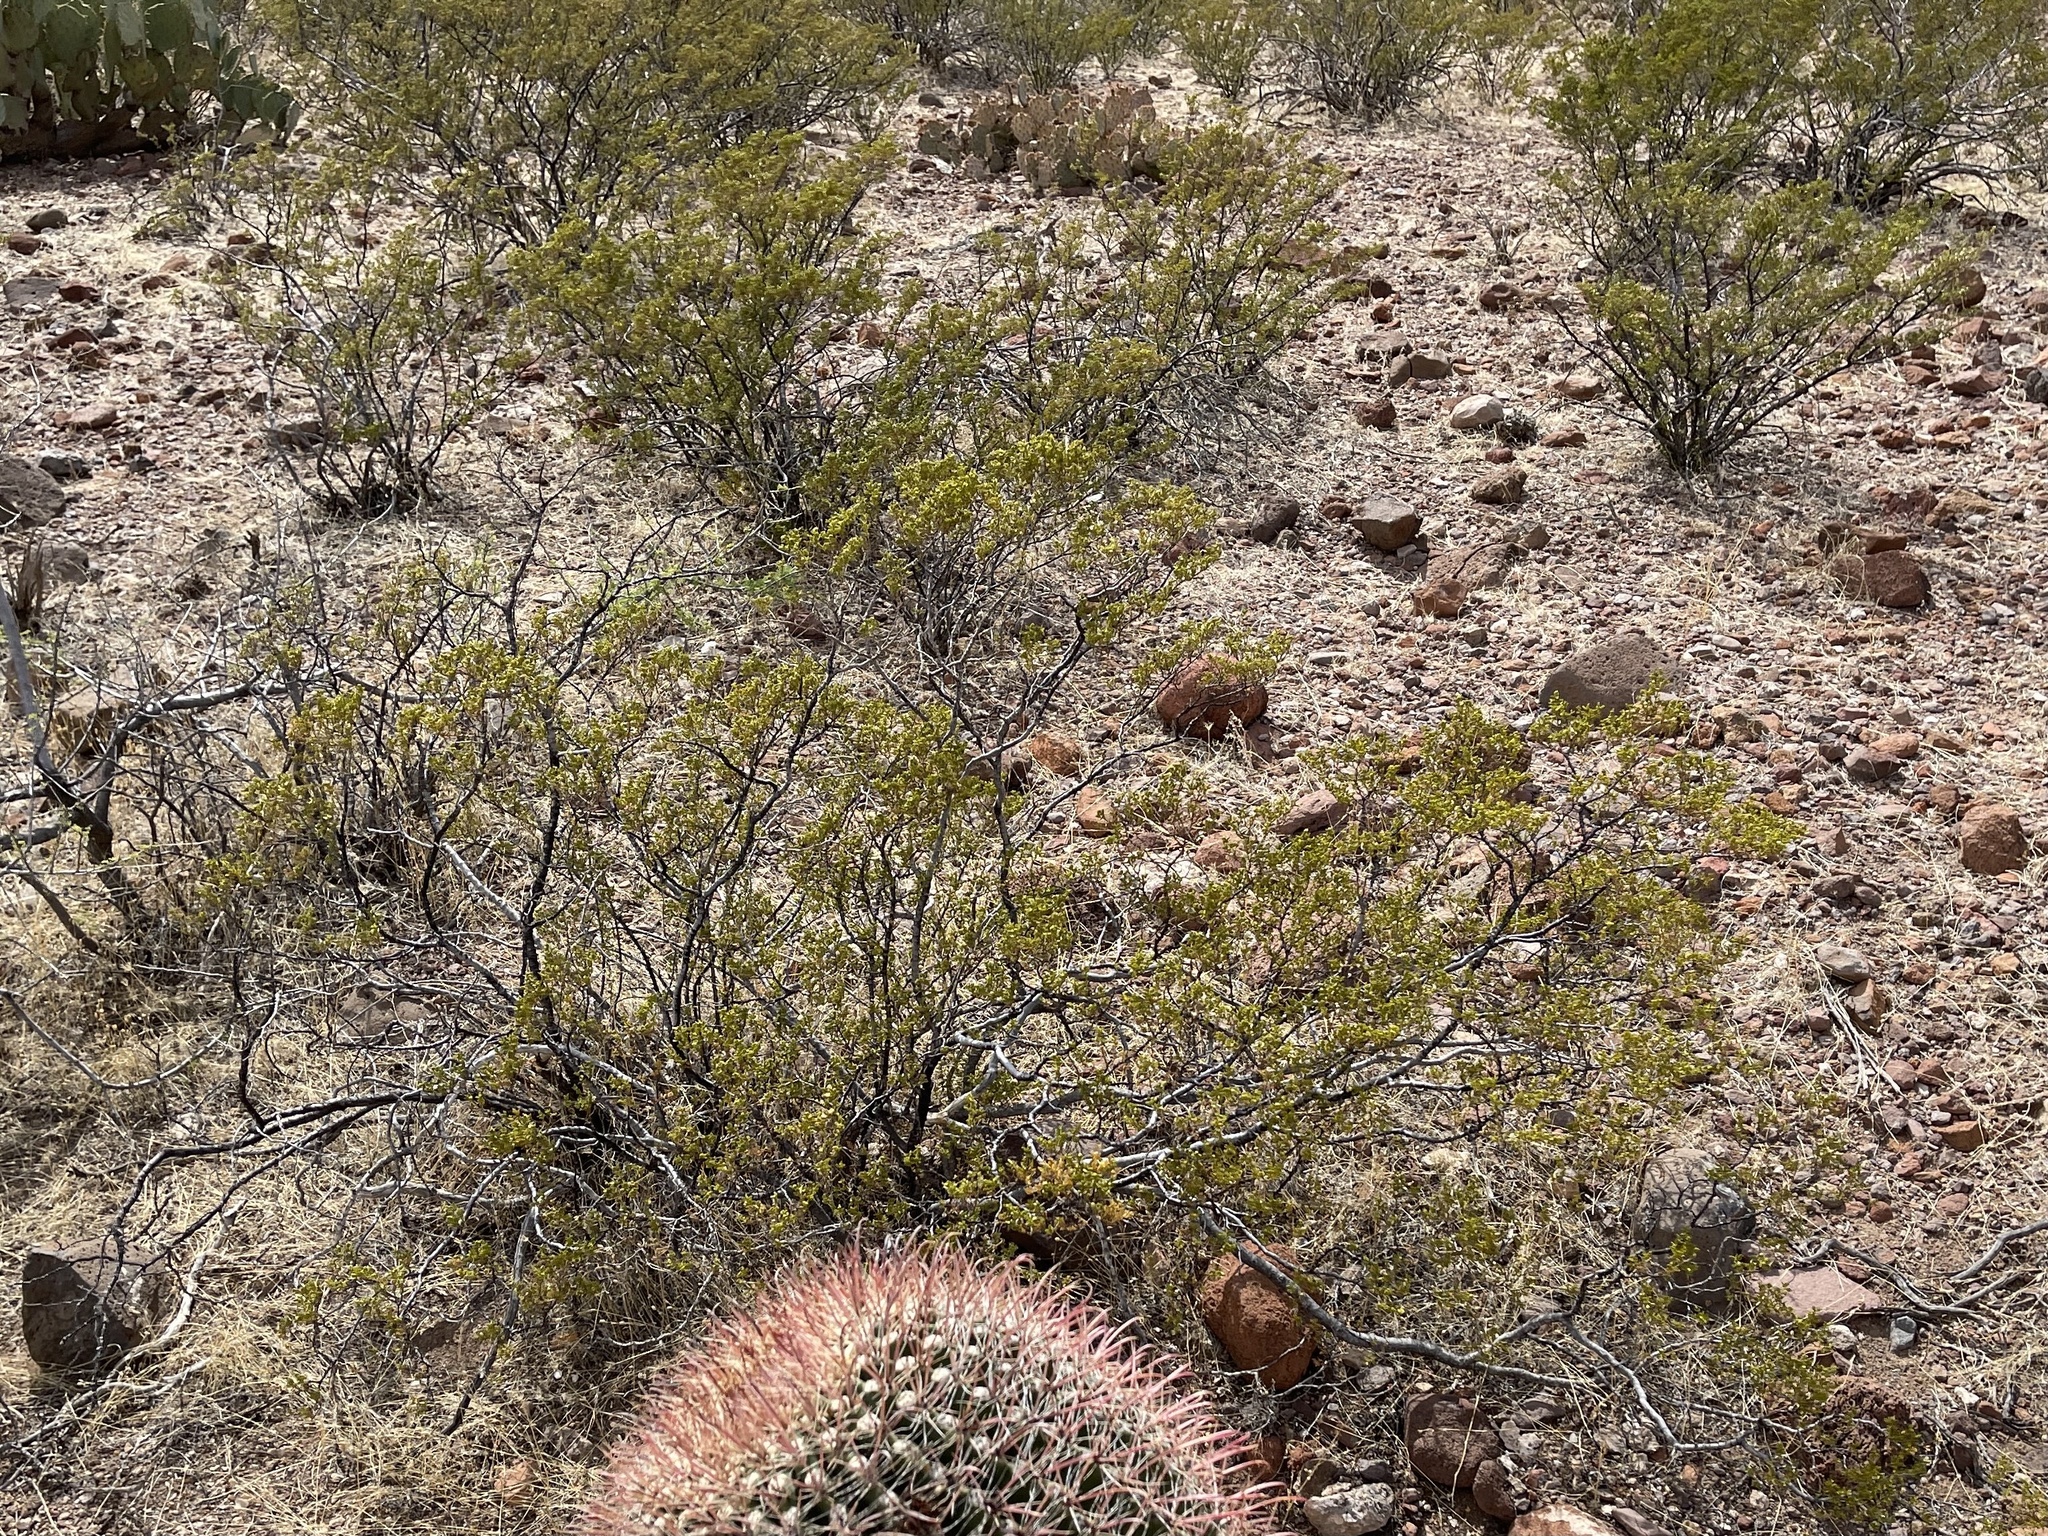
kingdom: Plantae
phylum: Tracheophyta
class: Magnoliopsida
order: Zygophyllales
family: Zygophyllaceae
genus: Larrea
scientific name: Larrea tridentata
